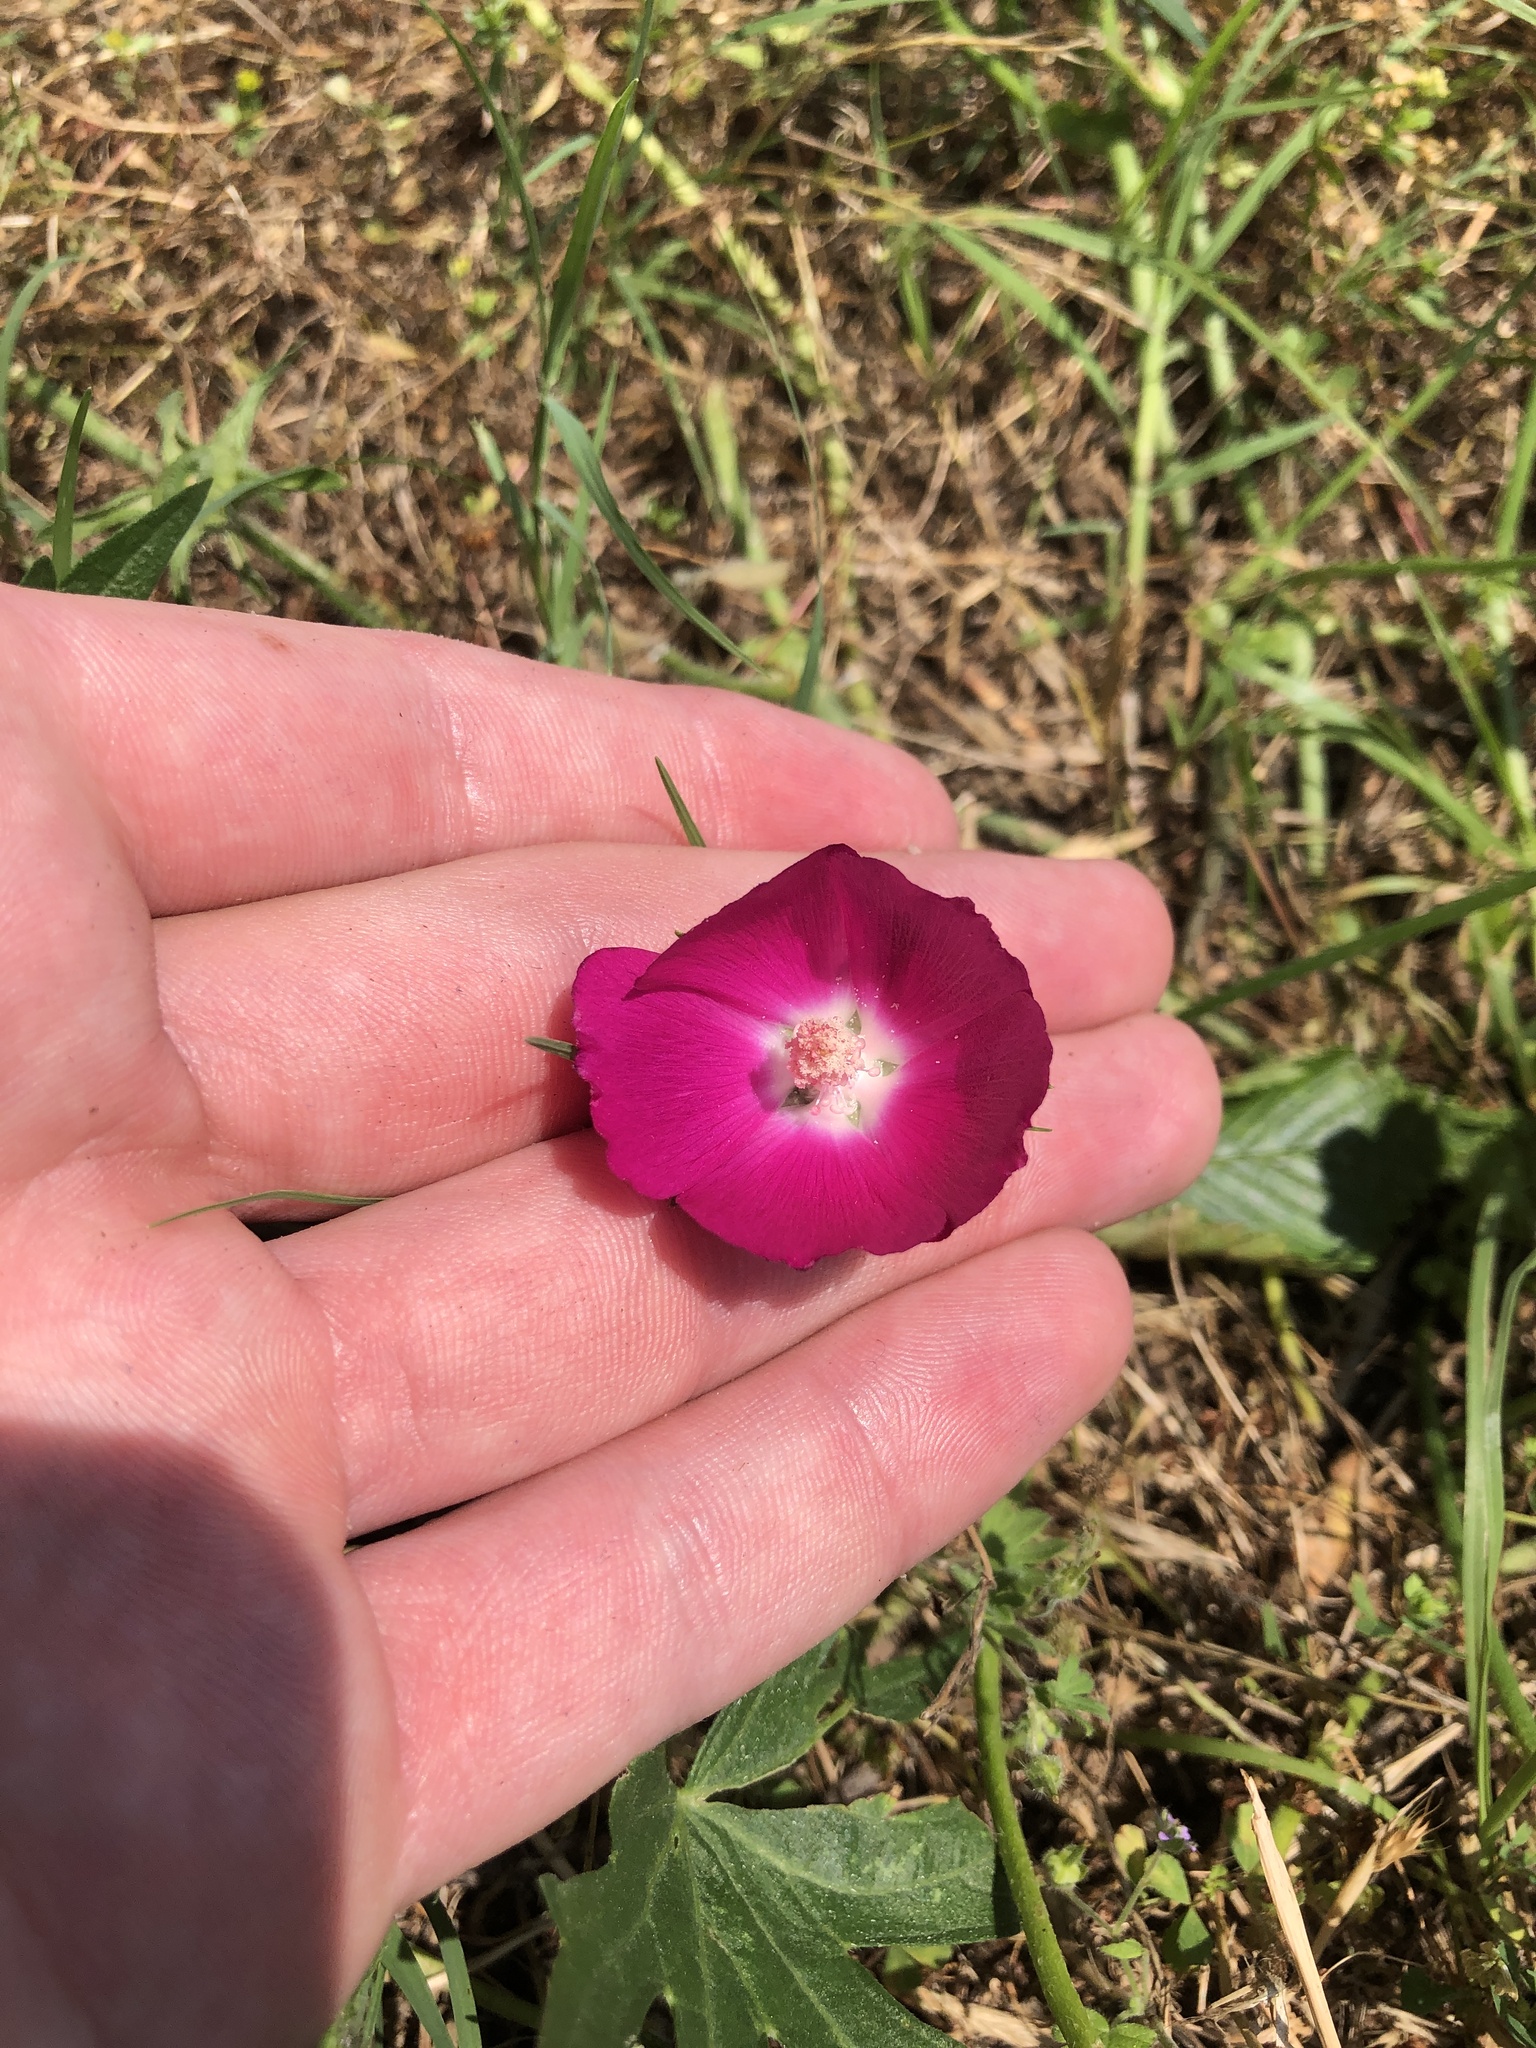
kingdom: Plantae
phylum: Tracheophyta
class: Magnoliopsida
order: Malvales
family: Malvaceae
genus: Callirhoe
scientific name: Callirhoe involucrata
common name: Purple poppy-mallow
